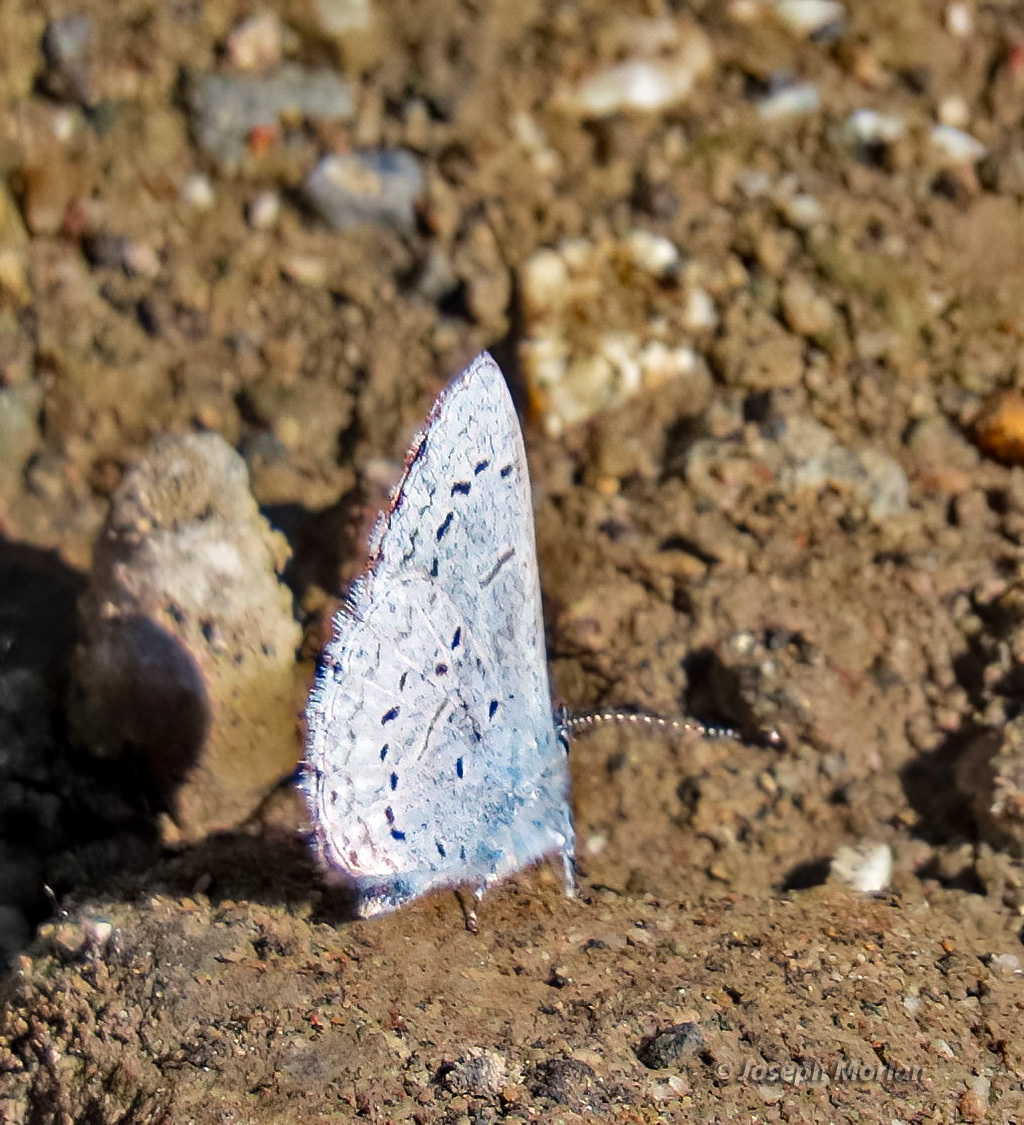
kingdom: Animalia
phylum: Arthropoda
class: Insecta
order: Lepidoptera
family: Lycaenidae
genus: Celastrina
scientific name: Celastrina ladon
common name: Spring azure
